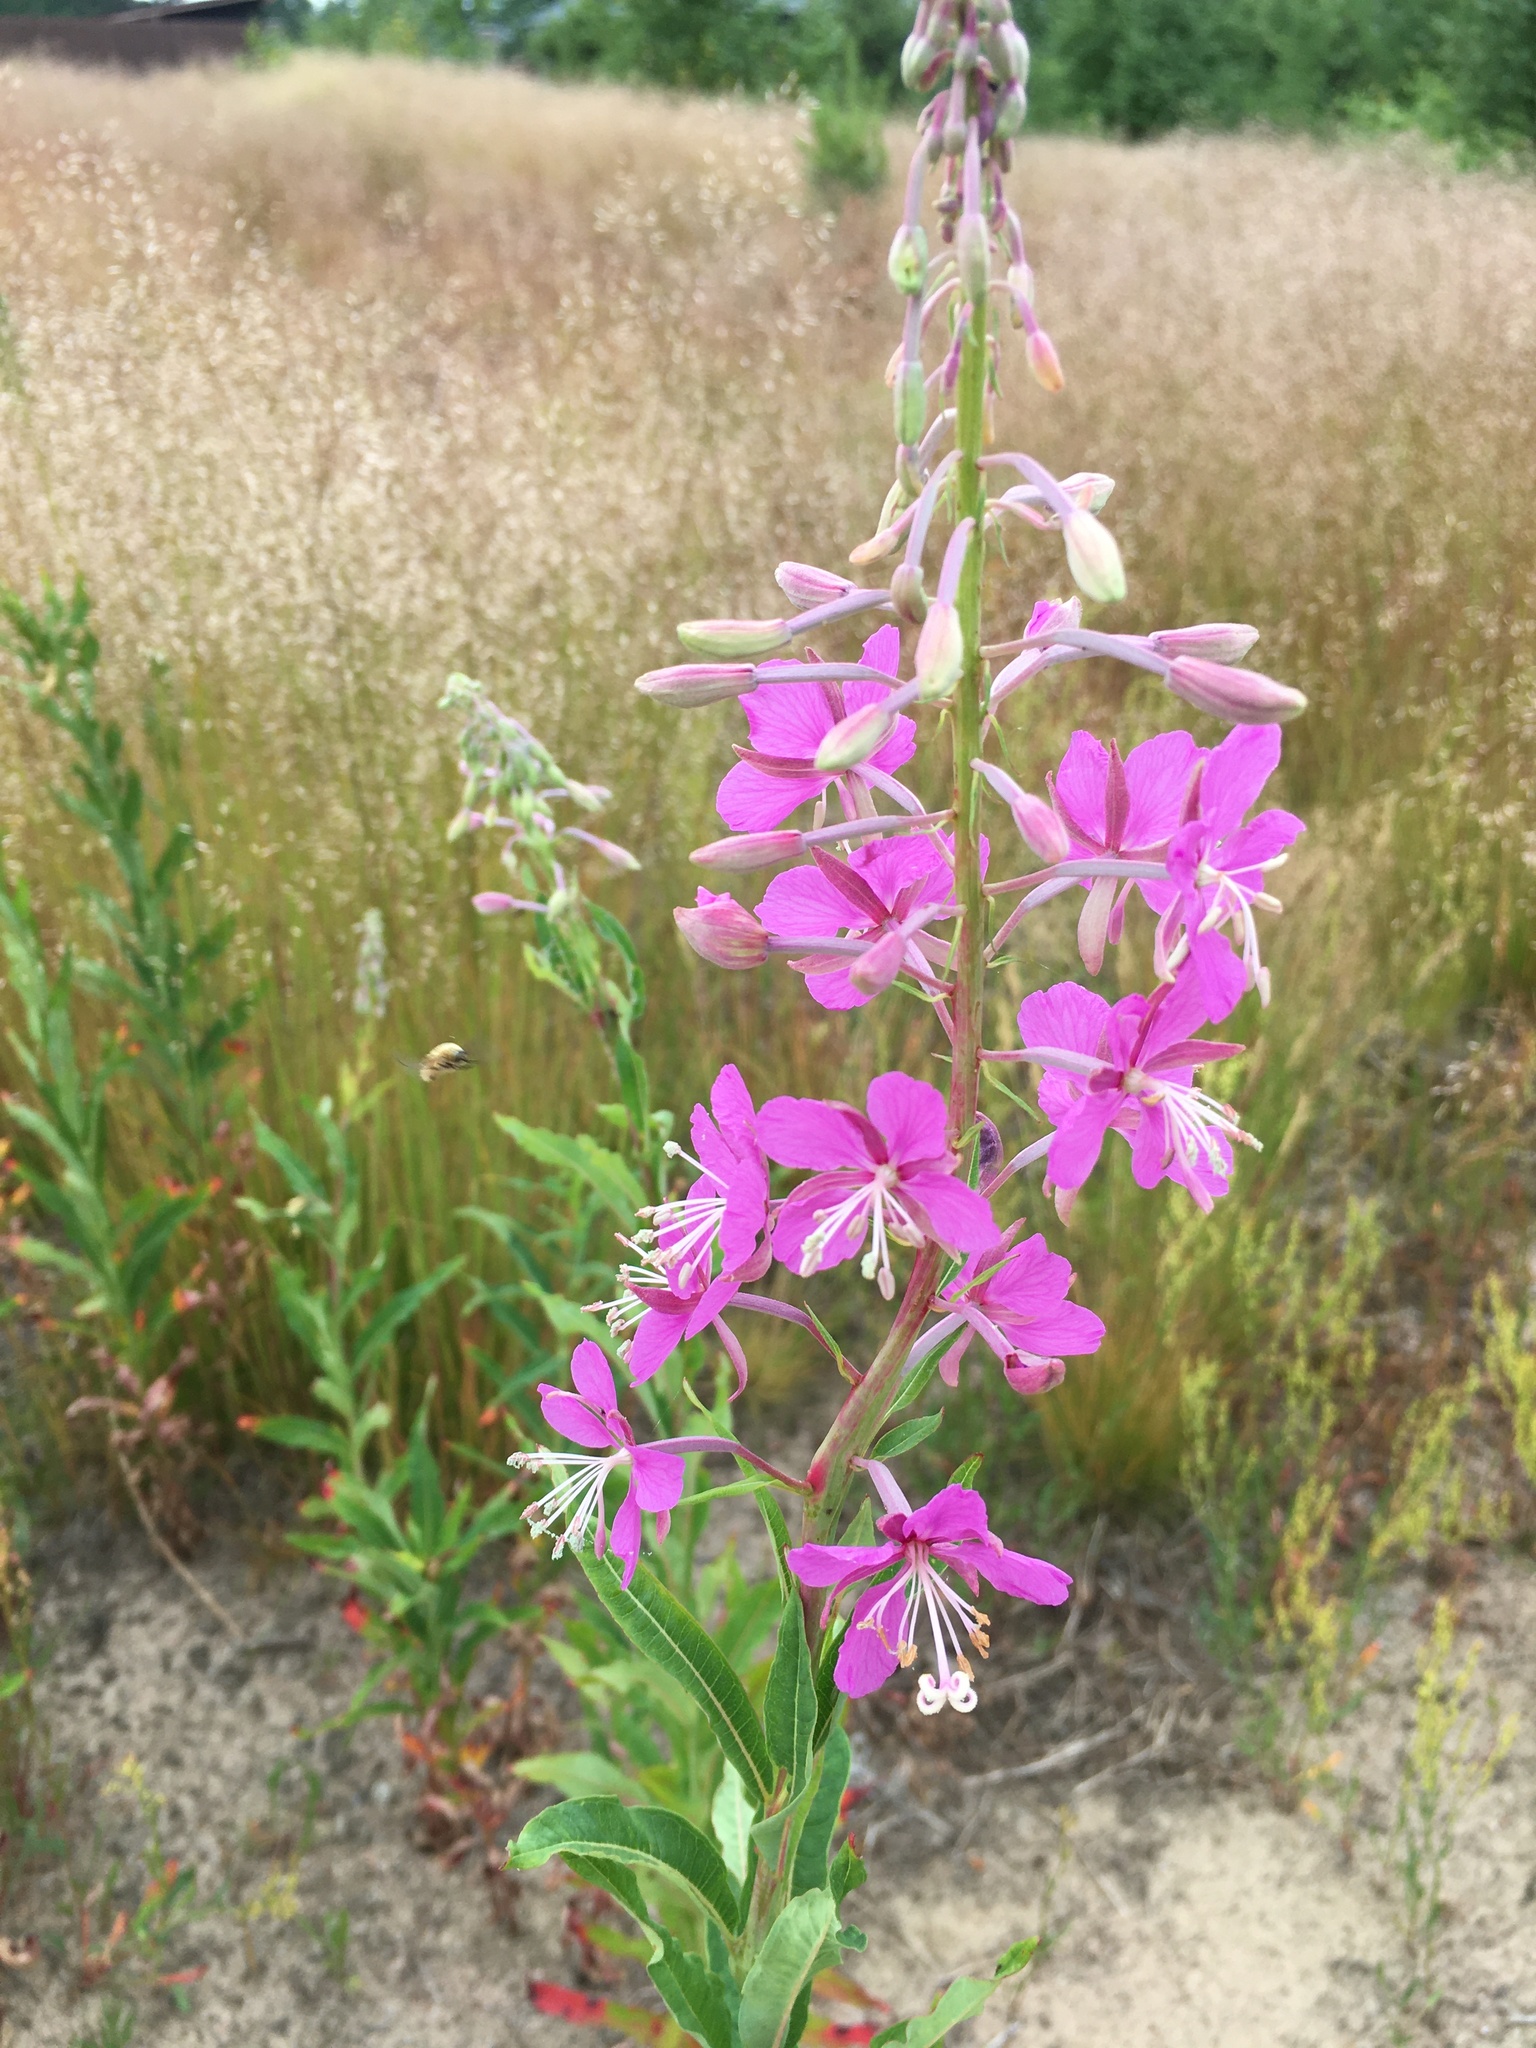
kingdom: Plantae
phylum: Tracheophyta
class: Magnoliopsida
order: Myrtales
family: Onagraceae
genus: Chamaenerion
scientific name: Chamaenerion angustifolium
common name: Fireweed
